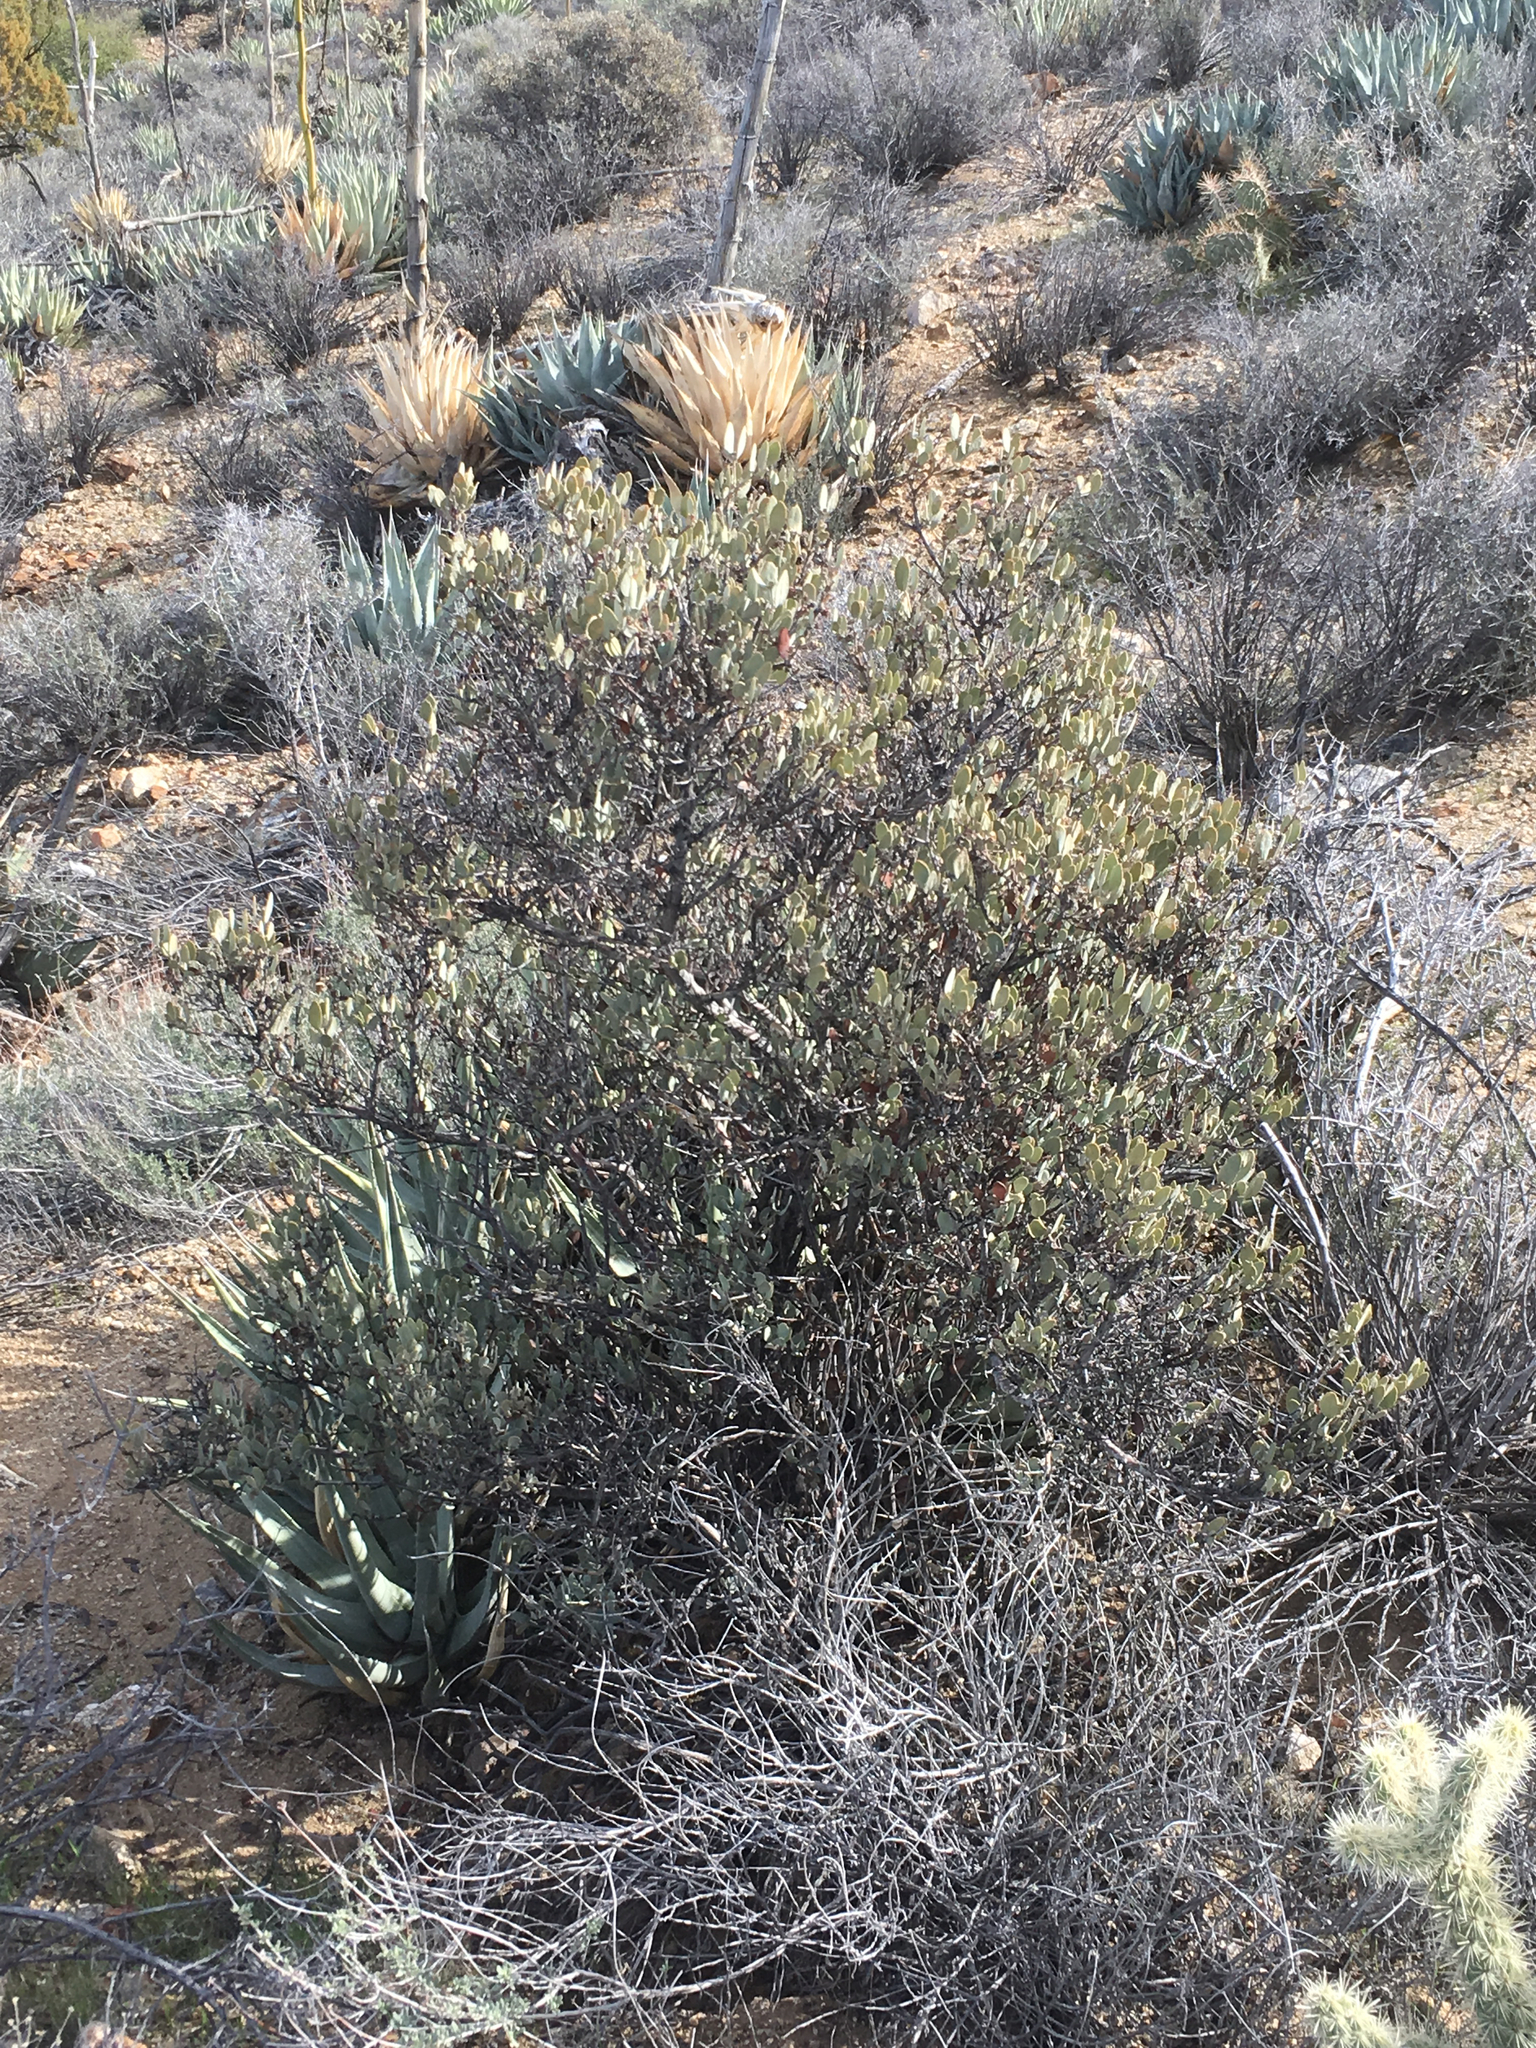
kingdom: Plantae
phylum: Tracheophyta
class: Magnoliopsida
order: Caryophyllales
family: Simmondsiaceae
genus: Simmondsia
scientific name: Simmondsia chinensis
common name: Jojoba
